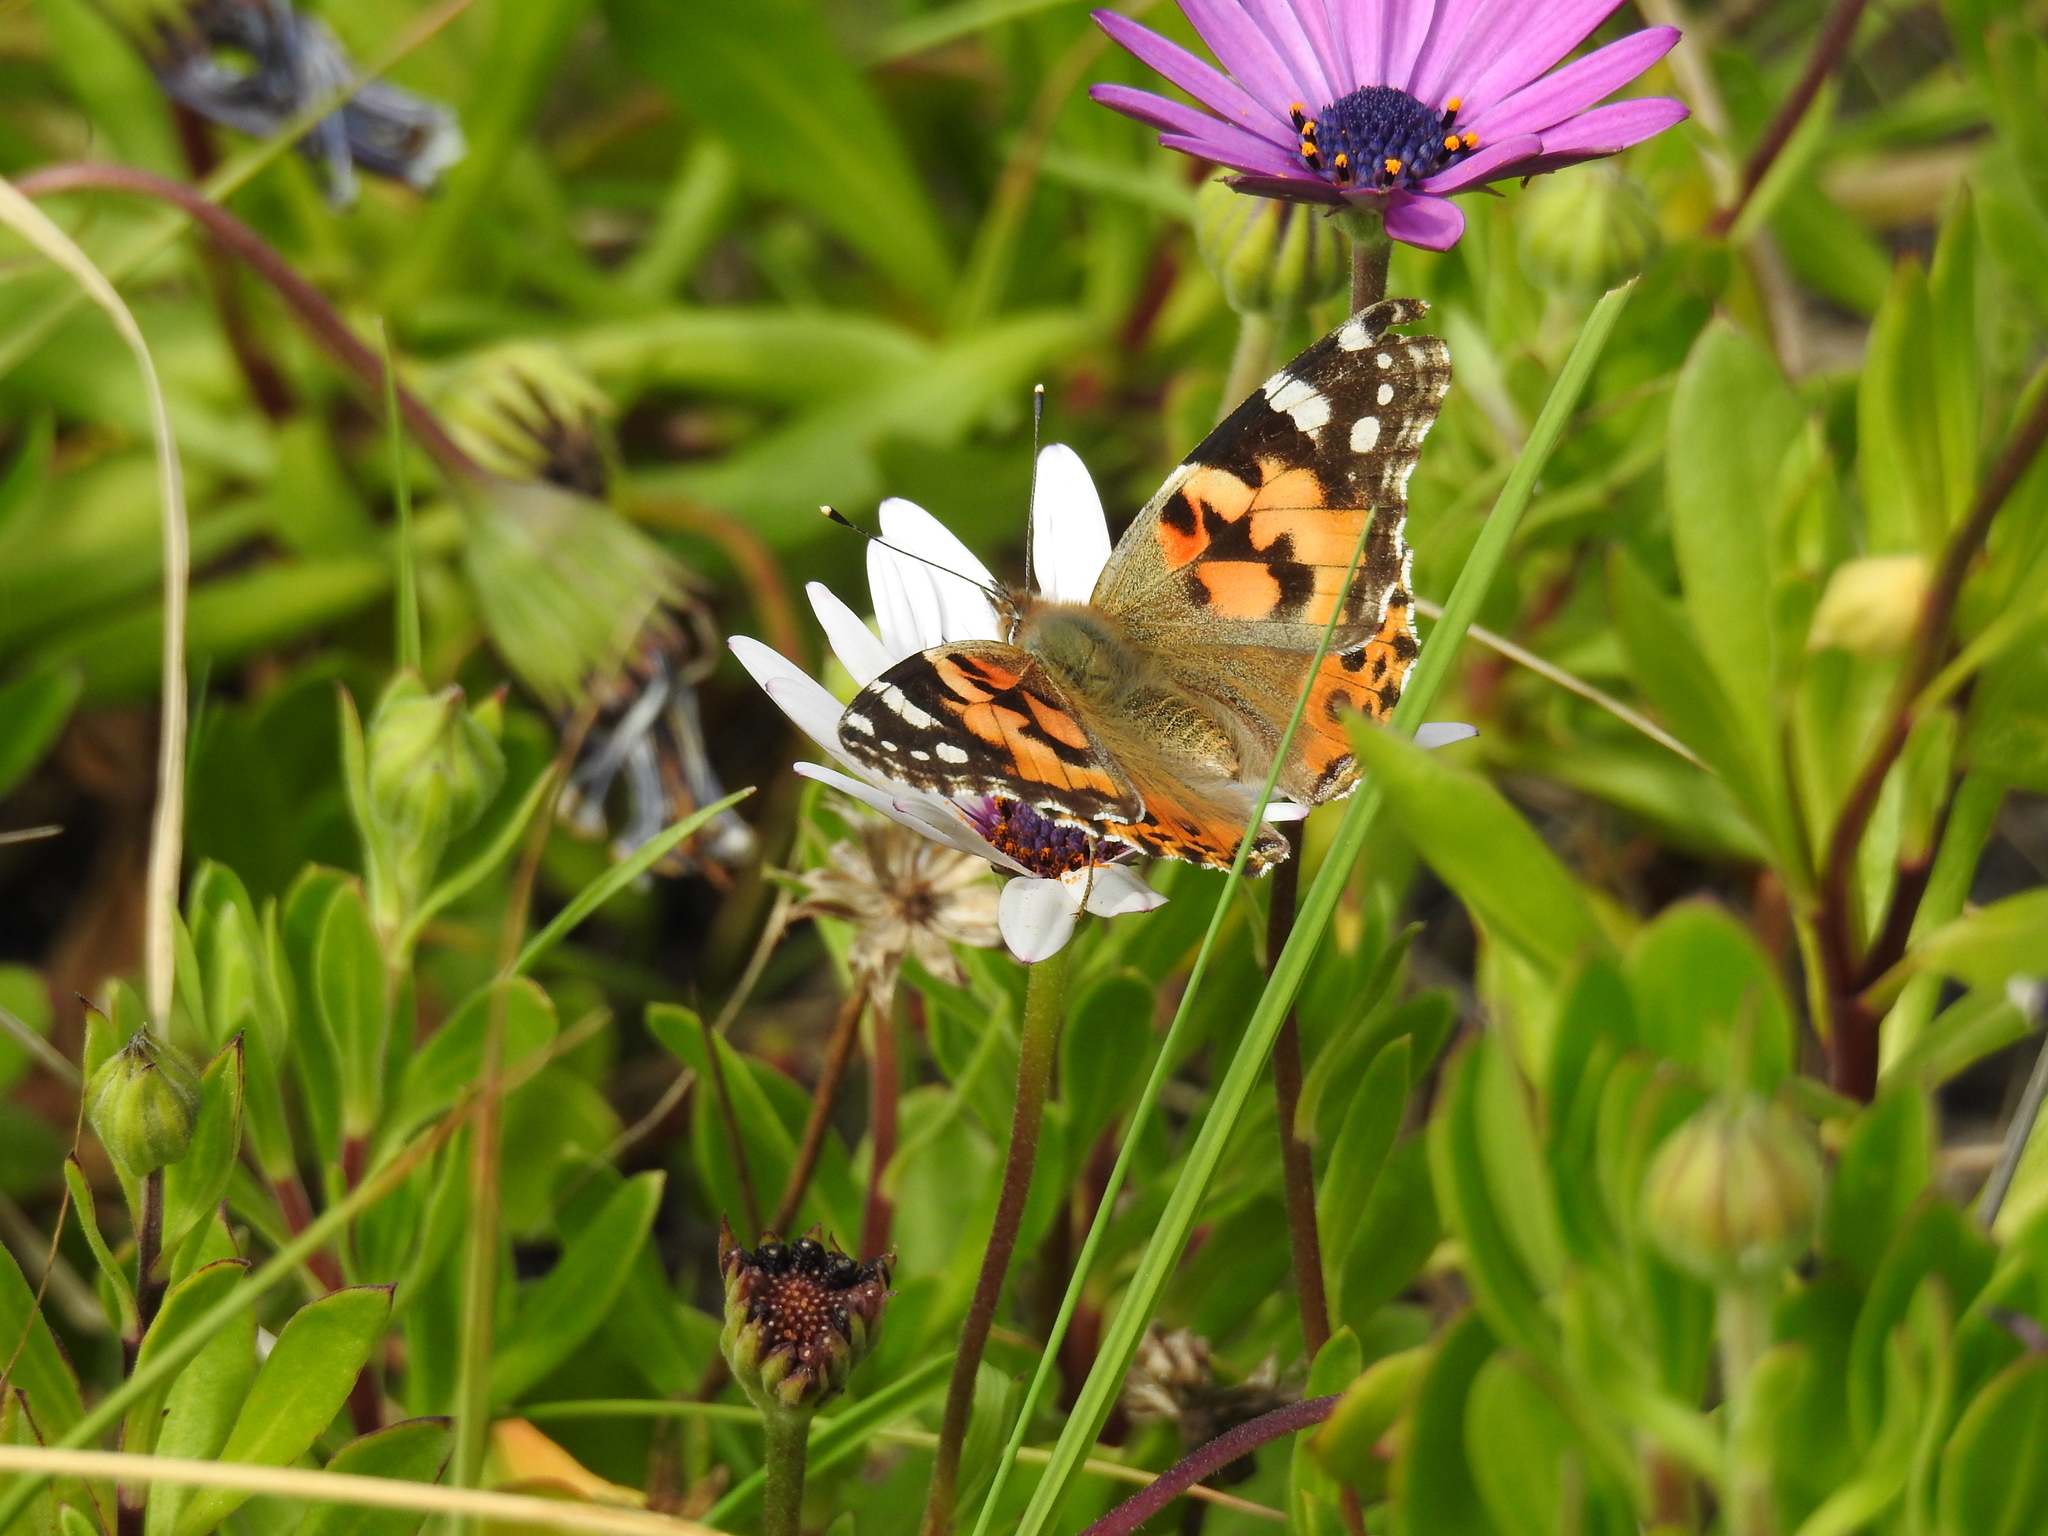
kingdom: Animalia
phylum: Arthropoda
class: Insecta
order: Lepidoptera
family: Nymphalidae
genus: Vanessa
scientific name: Vanessa cardui
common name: Painted lady
